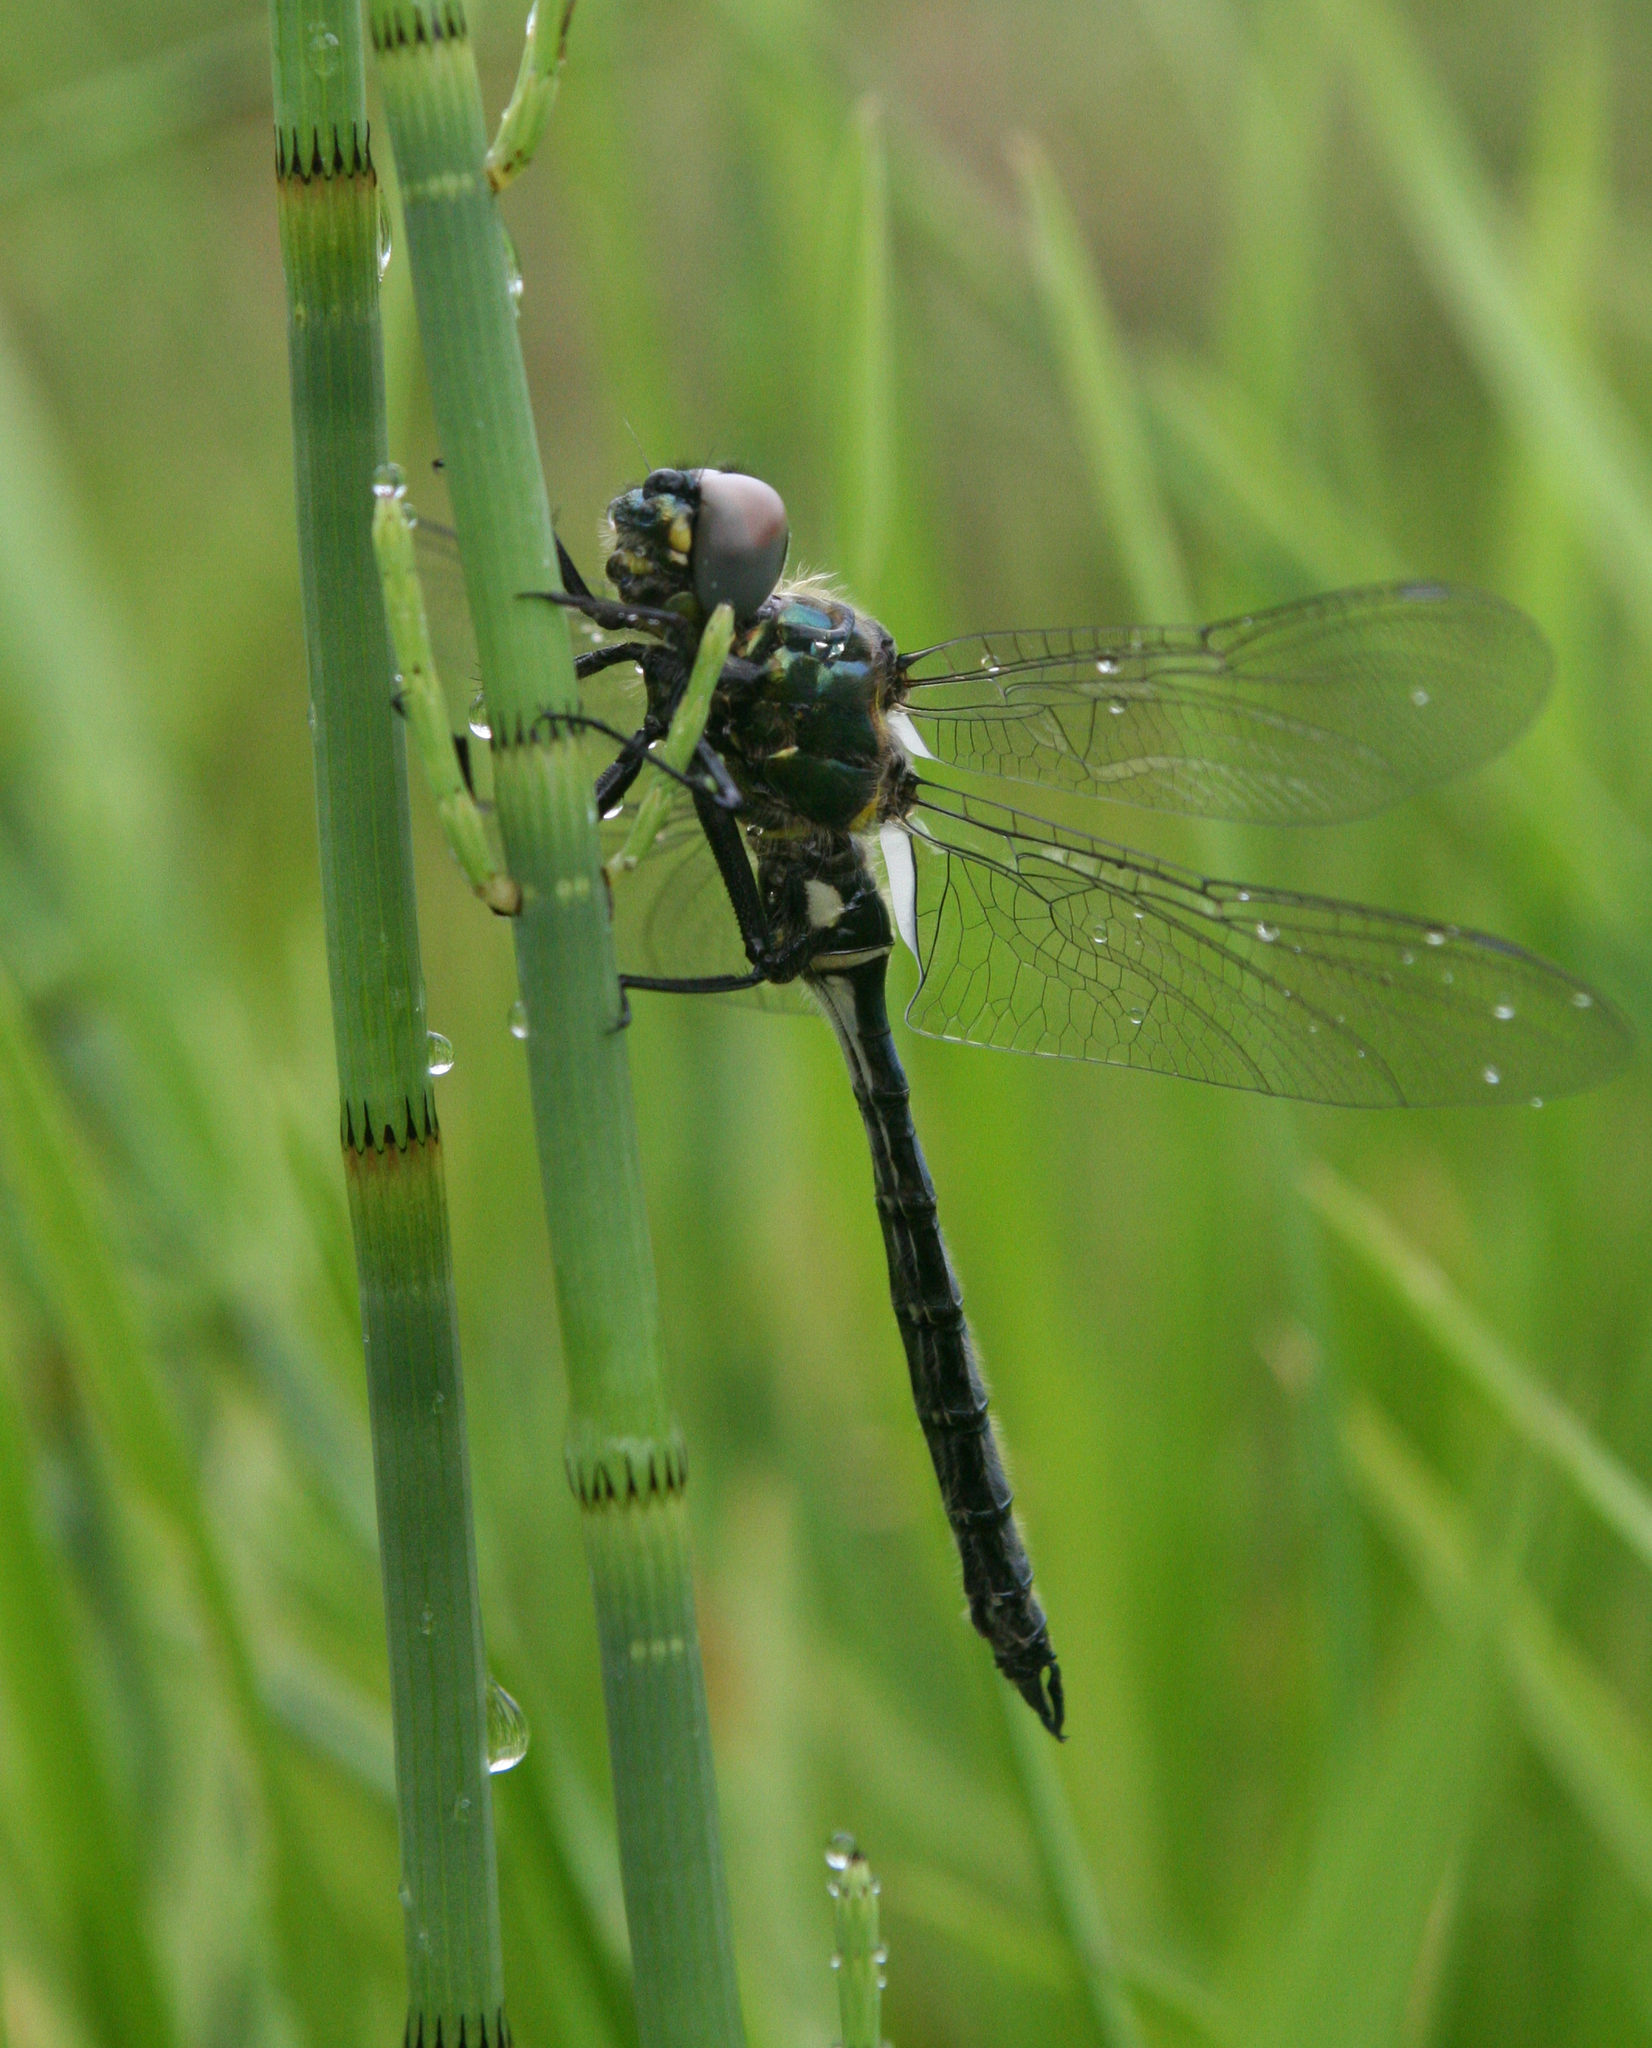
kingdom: Plantae
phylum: Tracheophyta
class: Polypodiopsida
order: Equisetales
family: Equisetaceae
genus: Equisetum
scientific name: Equisetum fluviatile
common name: Water horsetail
